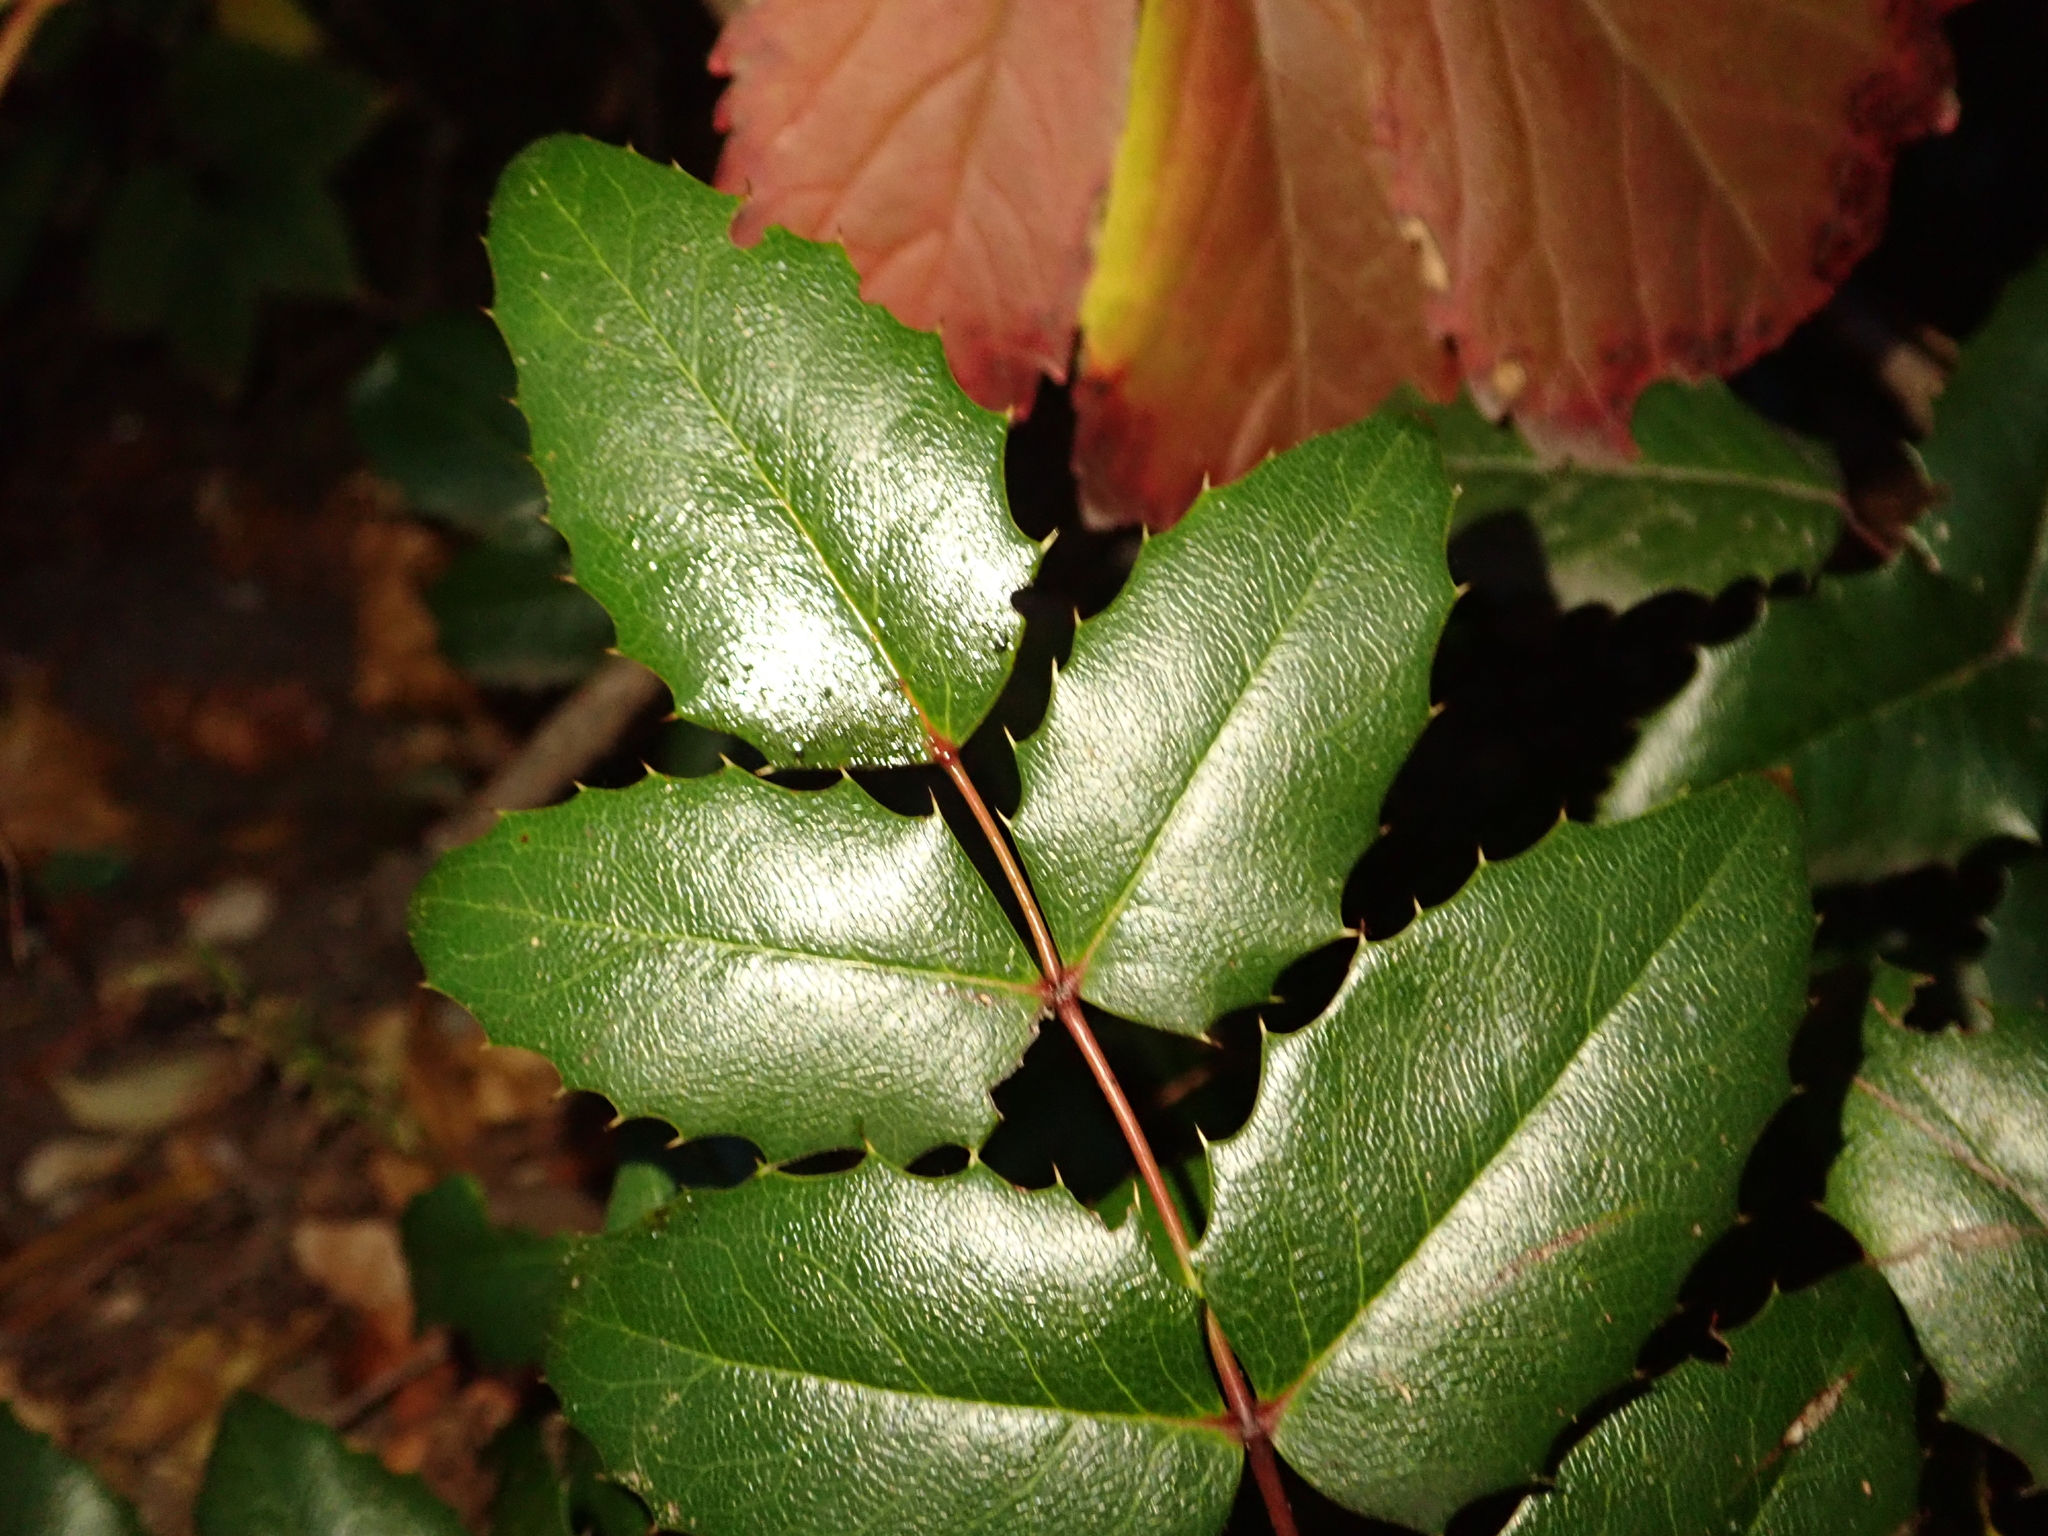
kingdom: Plantae
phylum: Tracheophyta
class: Magnoliopsida
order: Ranunculales
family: Berberidaceae
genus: Mahonia
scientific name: Mahonia aquifolium
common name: Oregon-grape
